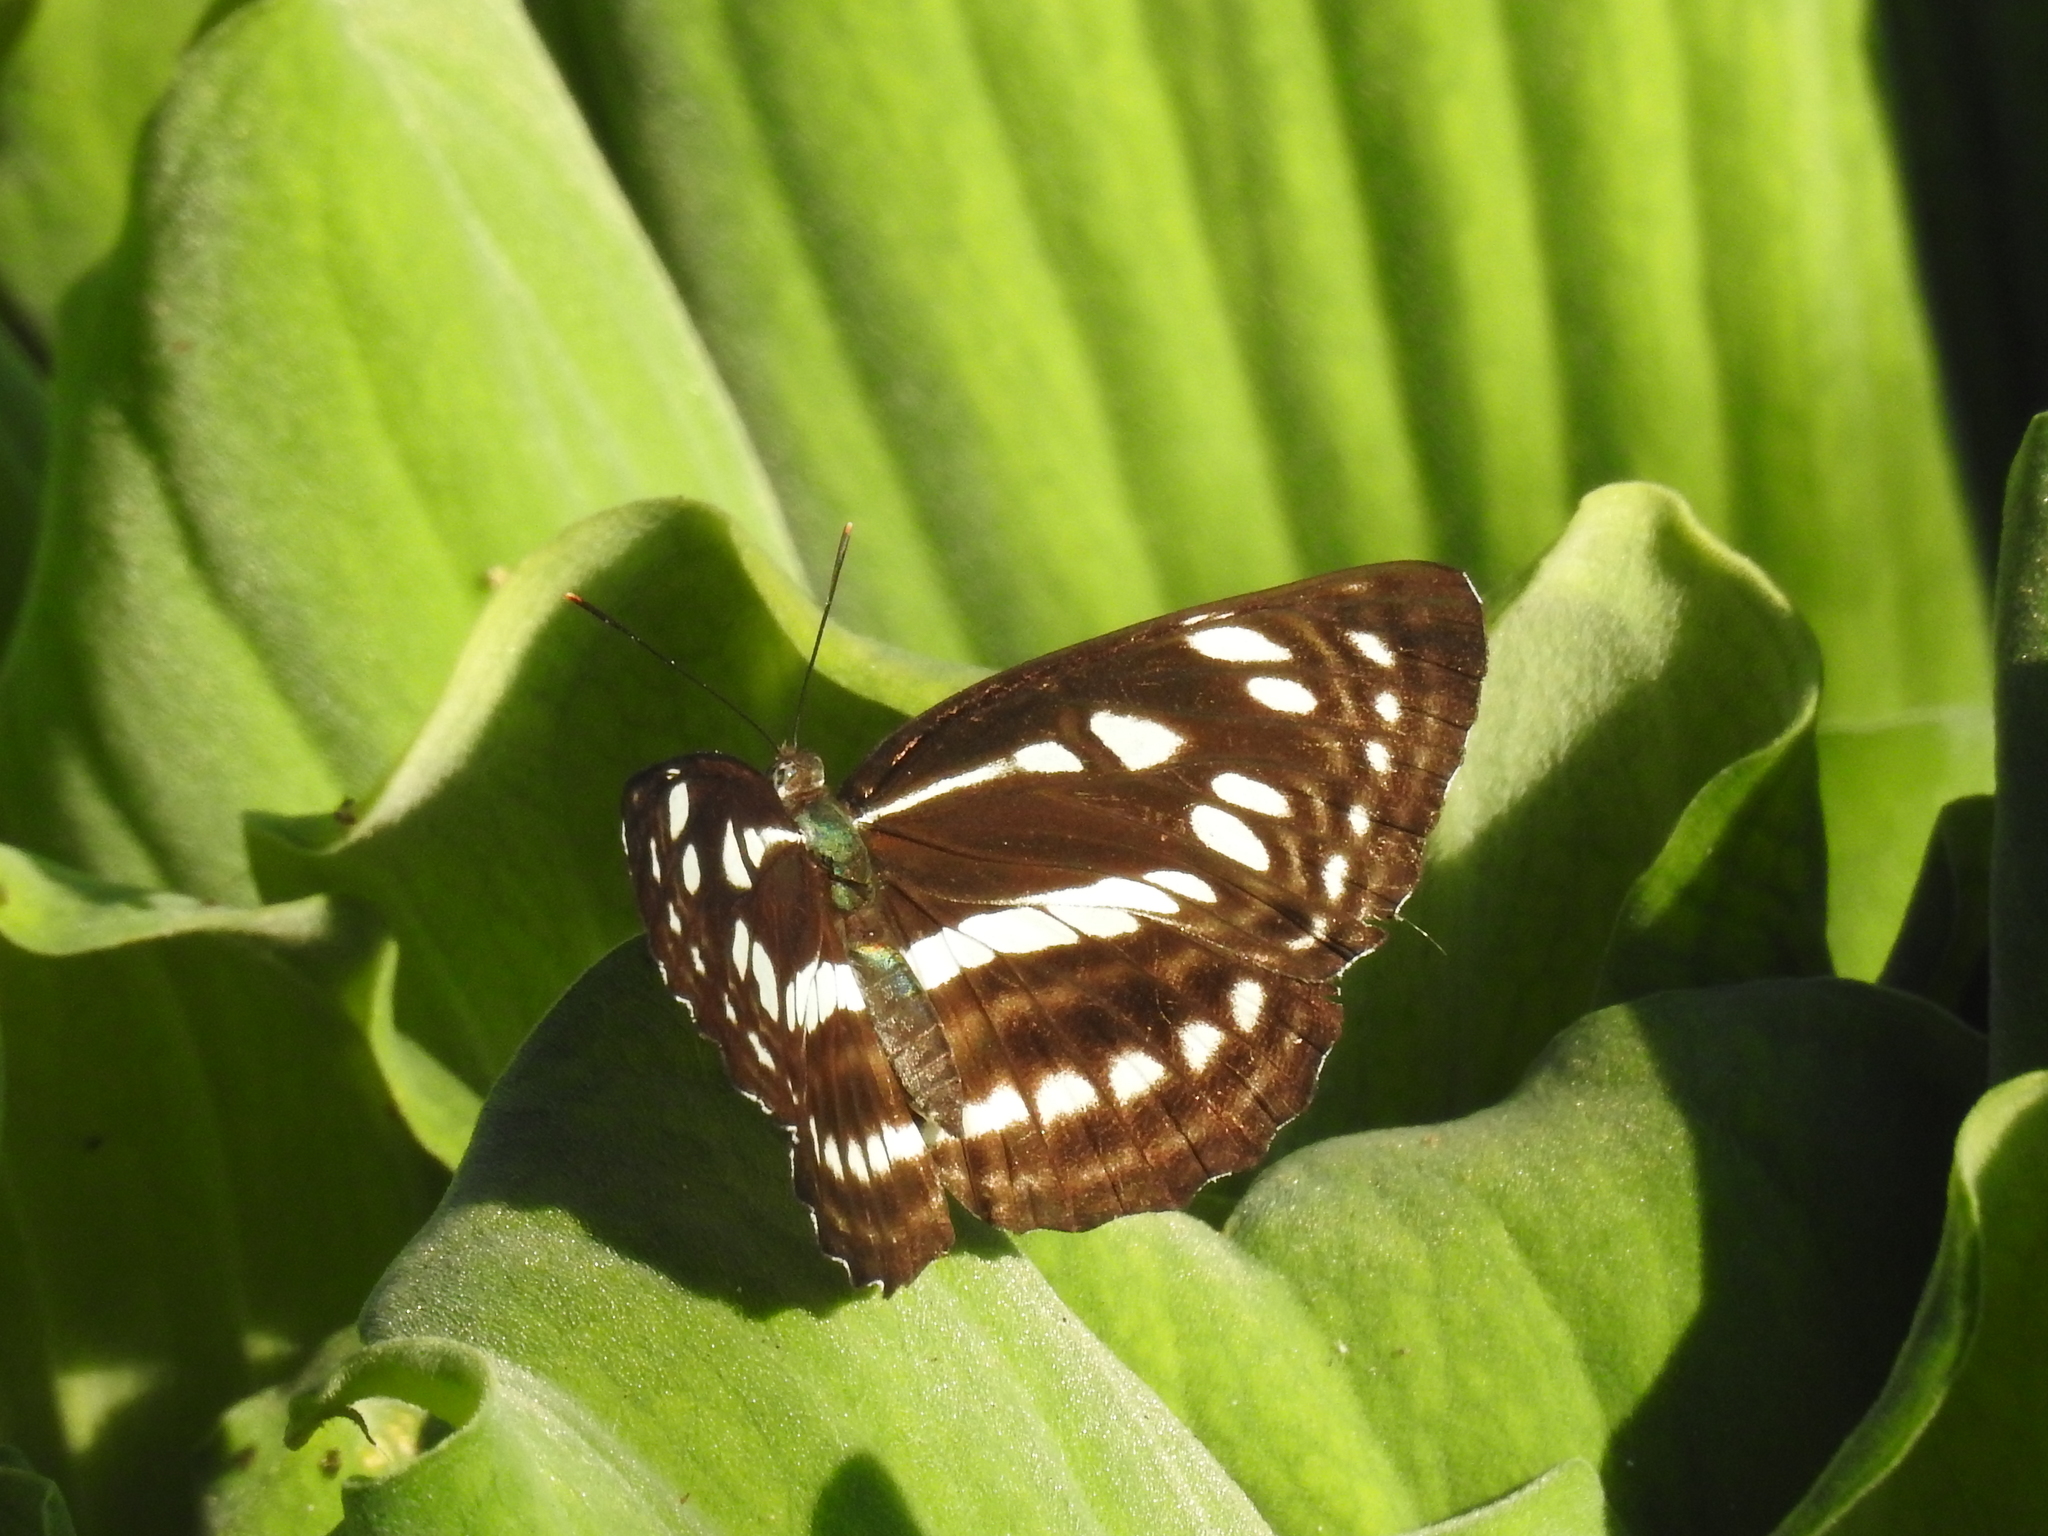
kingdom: Animalia
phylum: Arthropoda
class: Insecta
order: Lepidoptera
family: Nymphalidae
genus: Phaedyma
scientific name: Phaedyma columella
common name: Short banded sailer
